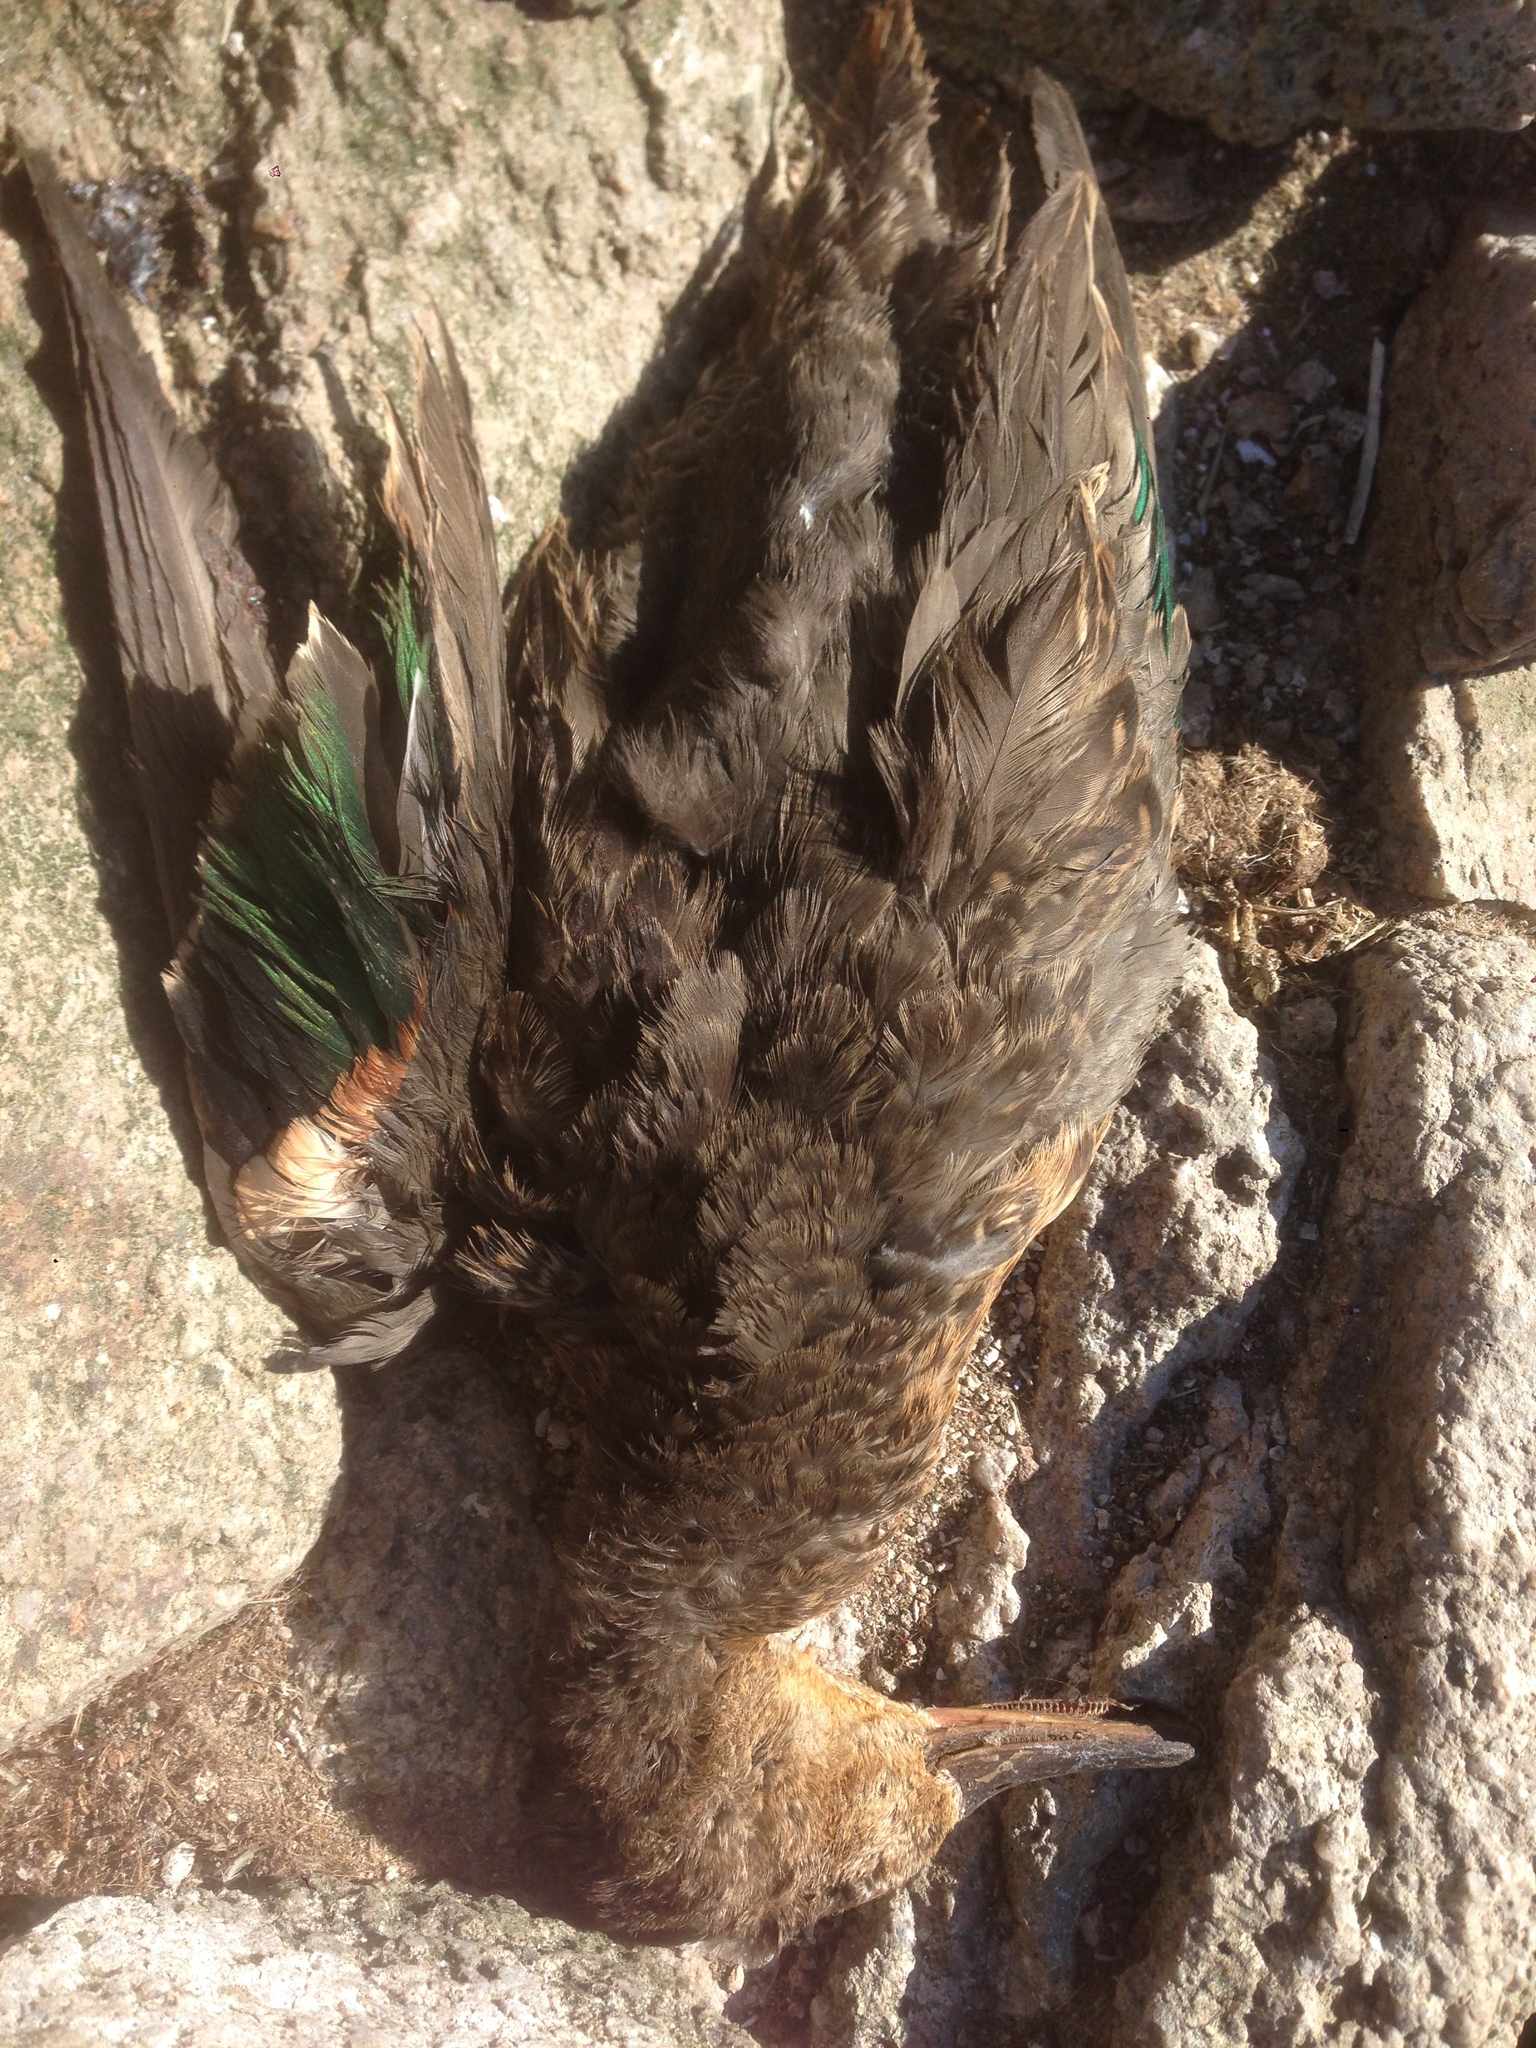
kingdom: Animalia
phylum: Chordata
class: Aves
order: Anseriformes
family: Anatidae
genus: Anas
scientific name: Anas crecca
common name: Eurasian teal
